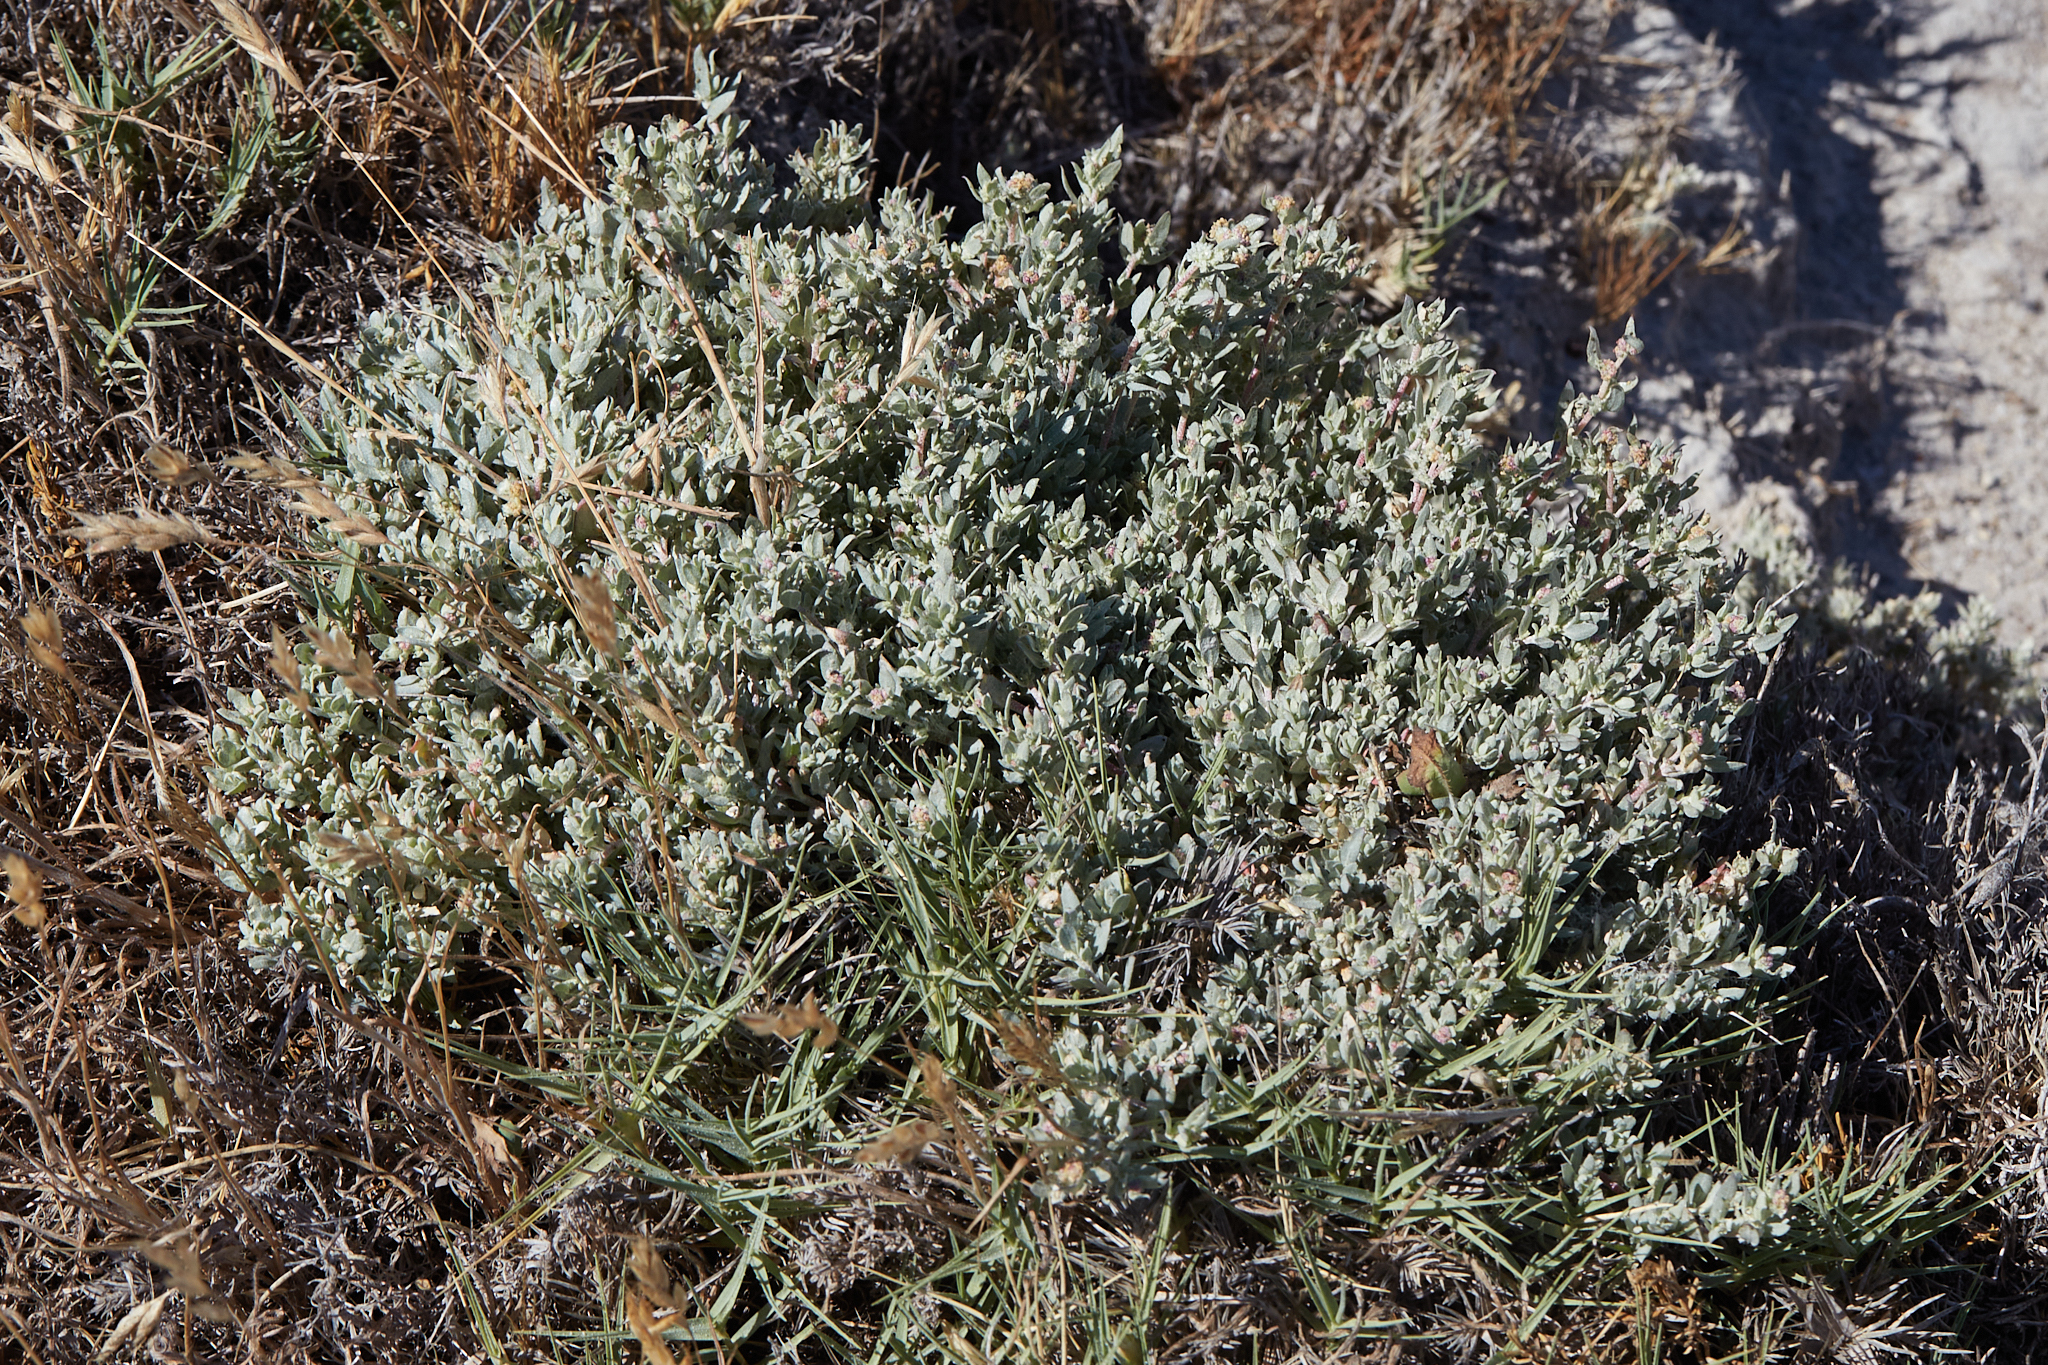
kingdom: Plantae
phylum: Tracheophyta
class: Magnoliopsida
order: Caryophyllales
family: Amaranthaceae
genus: Atriplex
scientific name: Atriplex fruticulosa
